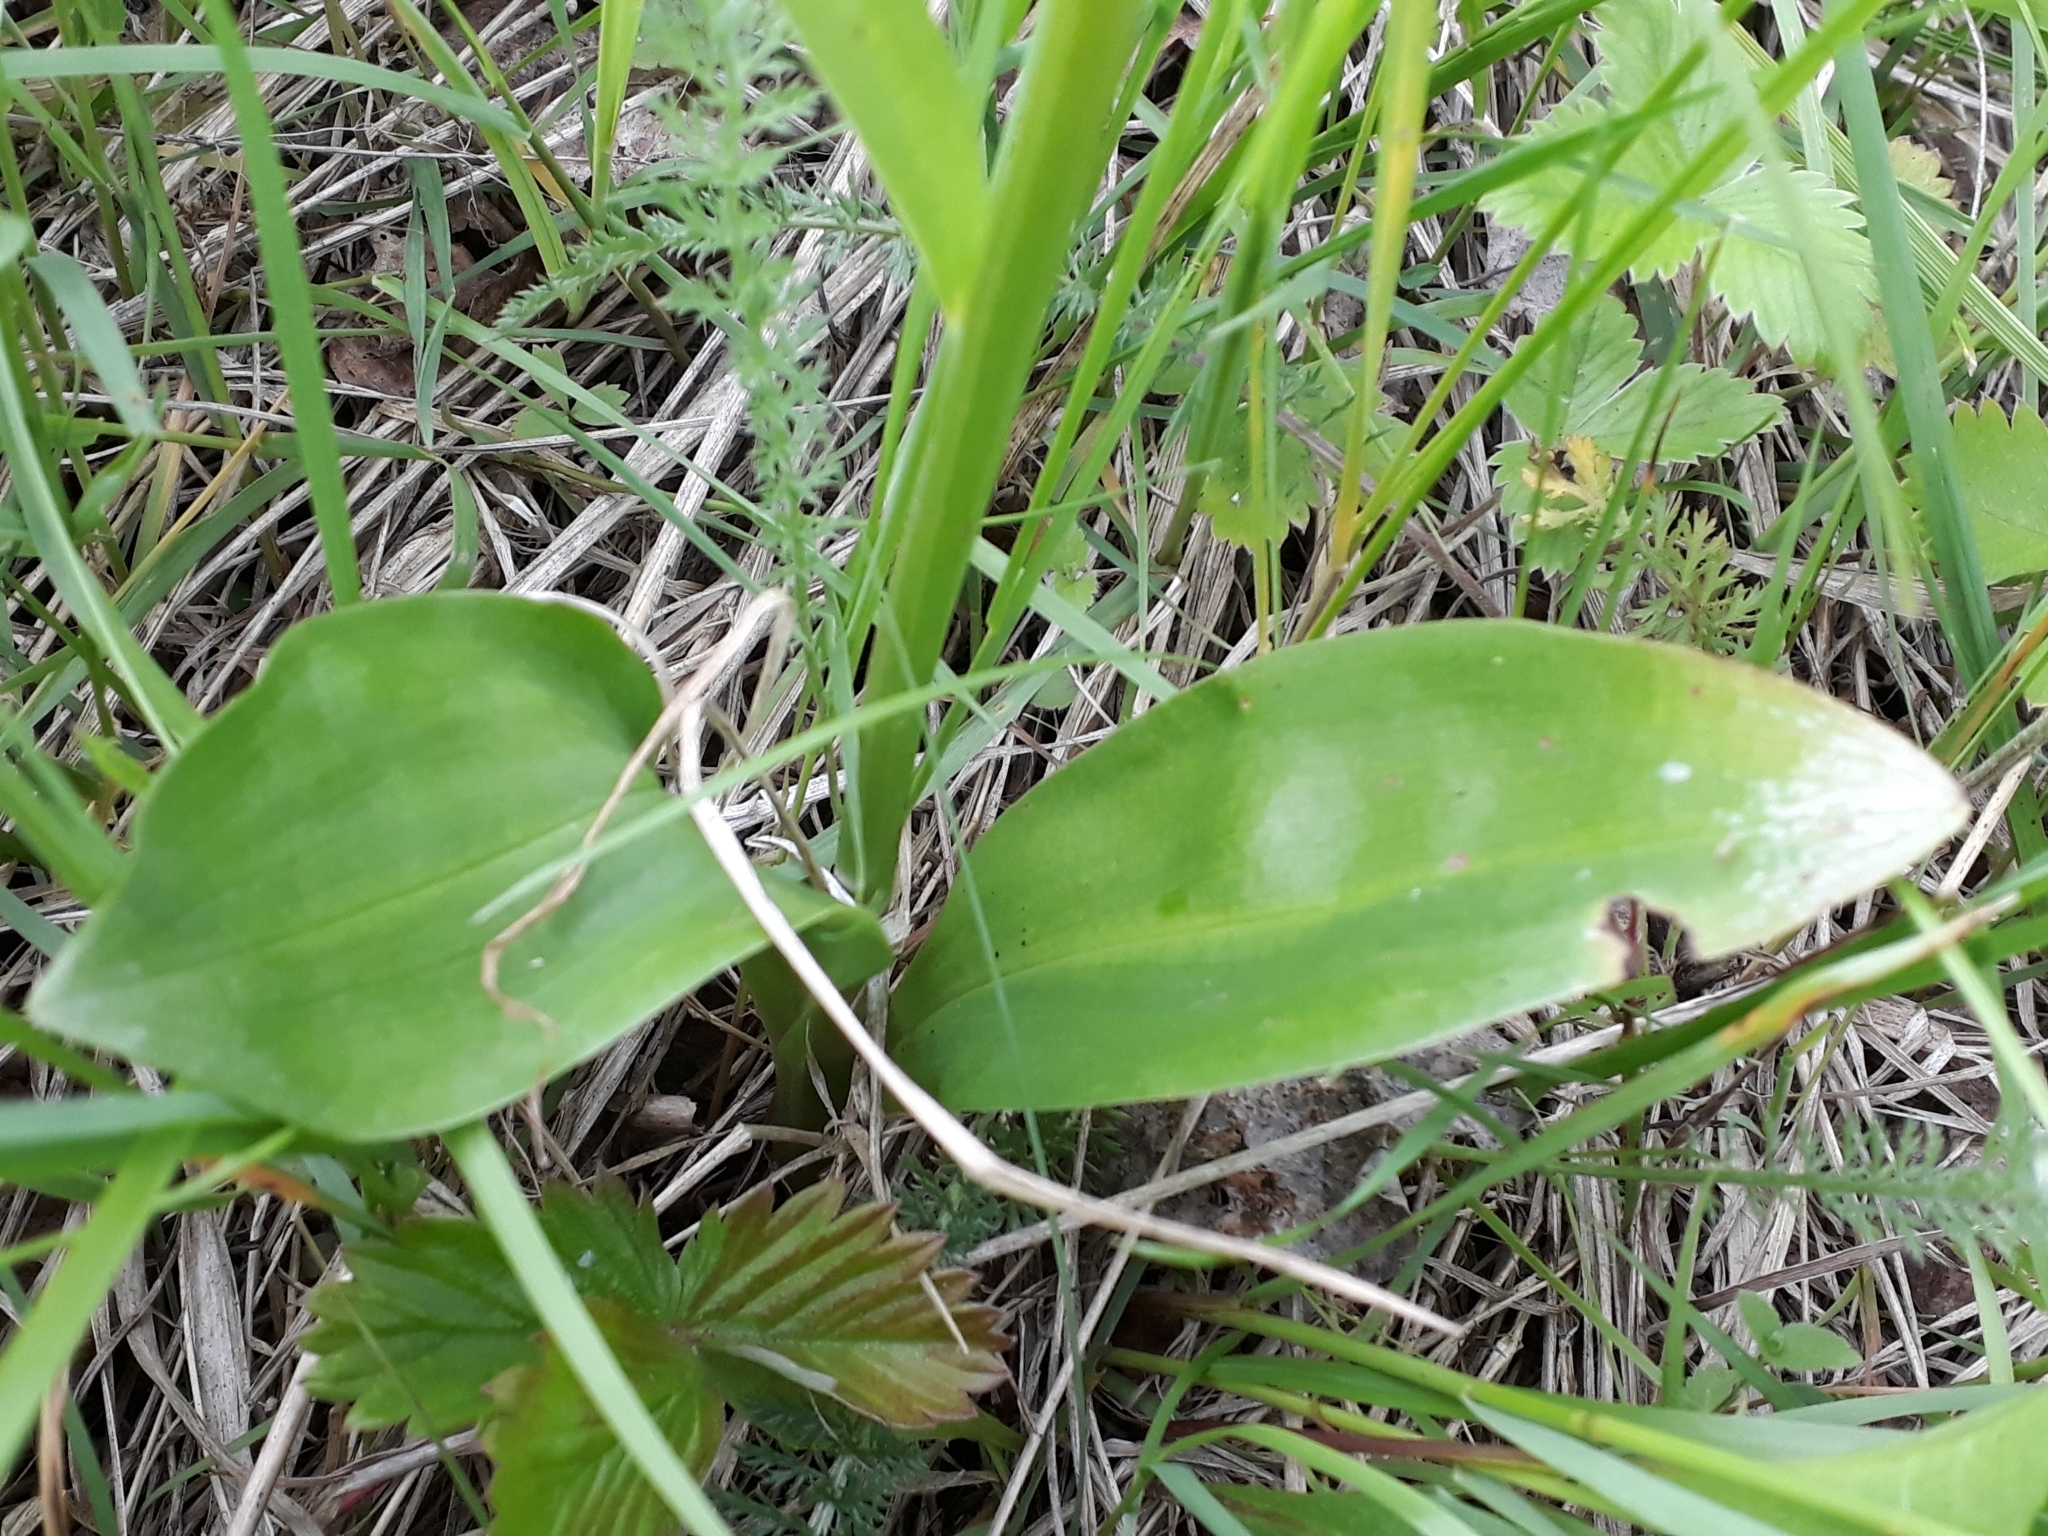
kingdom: Plantae
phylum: Tracheophyta
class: Liliopsida
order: Asparagales
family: Orchidaceae
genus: Platanthera
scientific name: Platanthera bifolia
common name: Lesser butterfly-orchid
